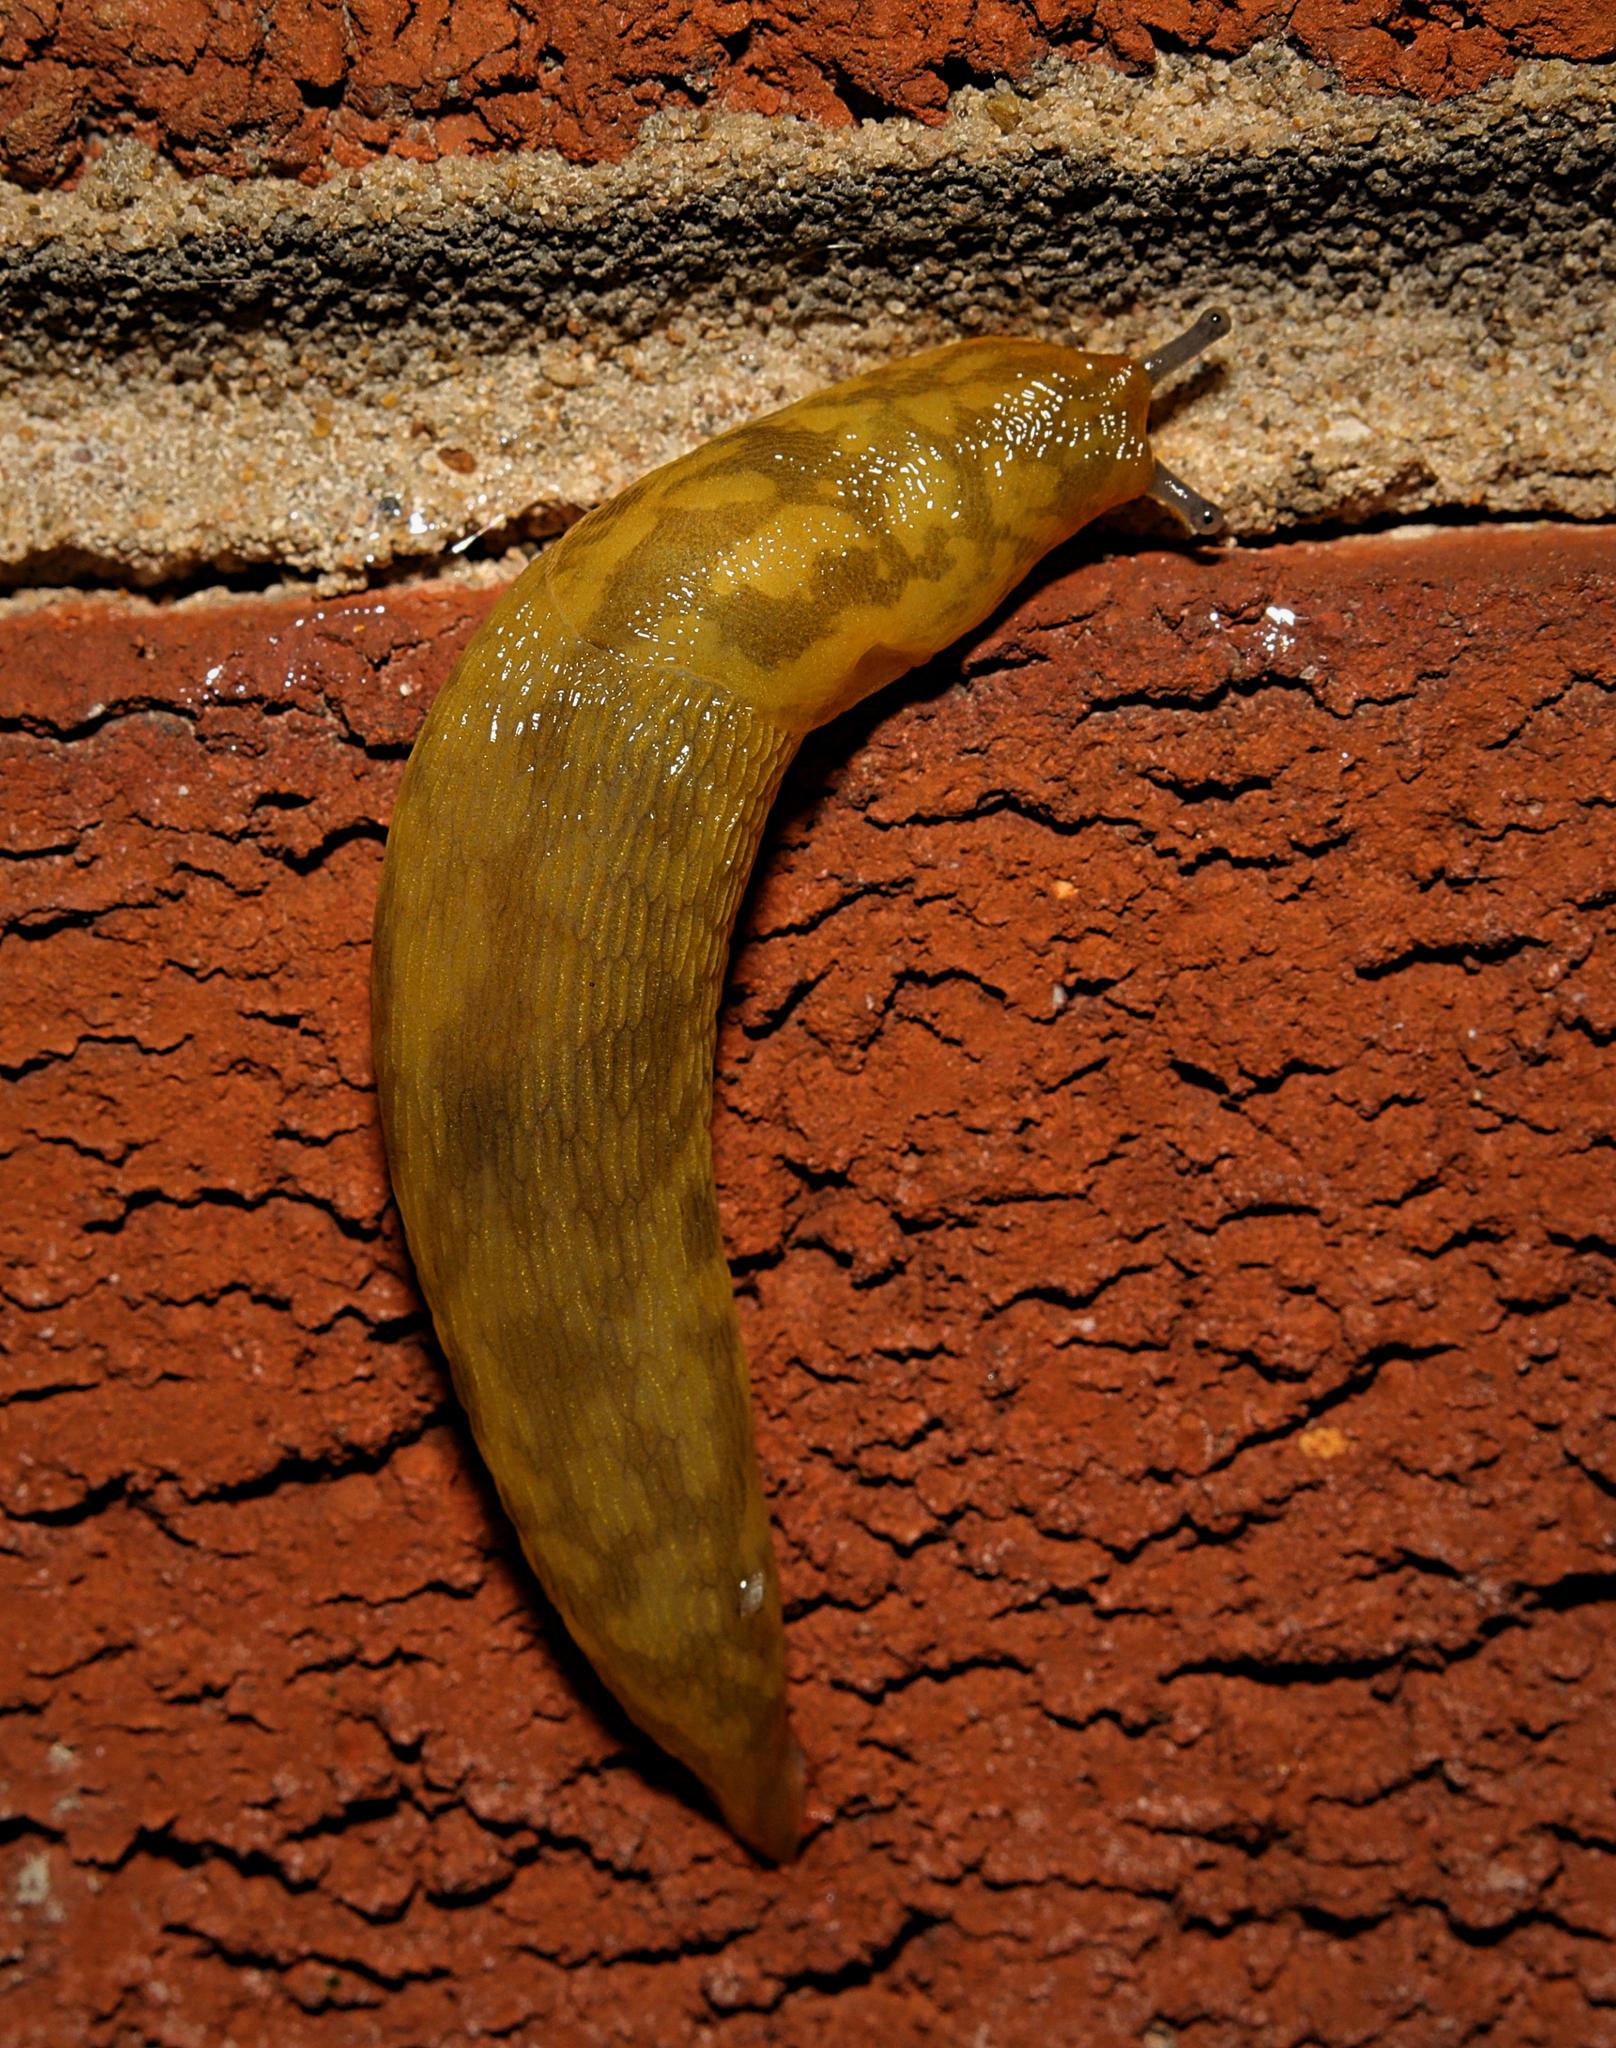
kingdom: Animalia
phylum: Mollusca
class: Gastropoda
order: Stylommatophora
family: Limacidae
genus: Limacus
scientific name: Limacus maculatus
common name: Irish yellow slug
